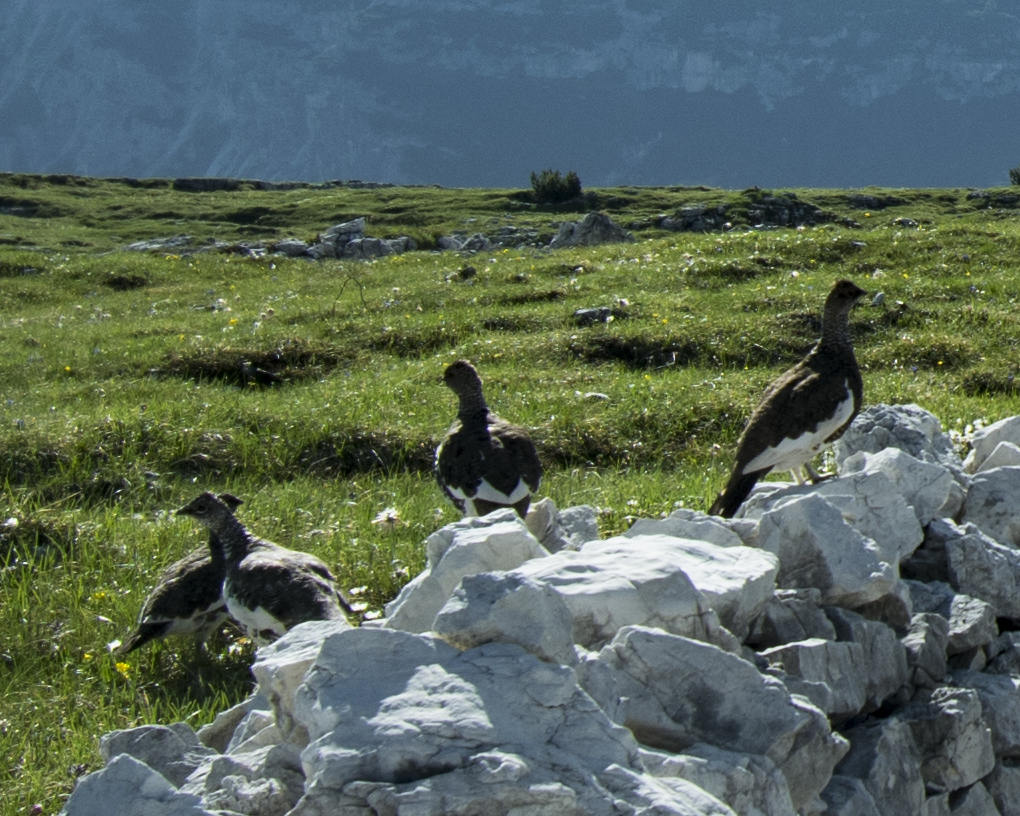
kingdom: Animalia
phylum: Chordata
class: Aves
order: Galliformes
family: Phasianidae
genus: Lagopus
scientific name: Lagopus muta
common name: Rock ptarmigan
